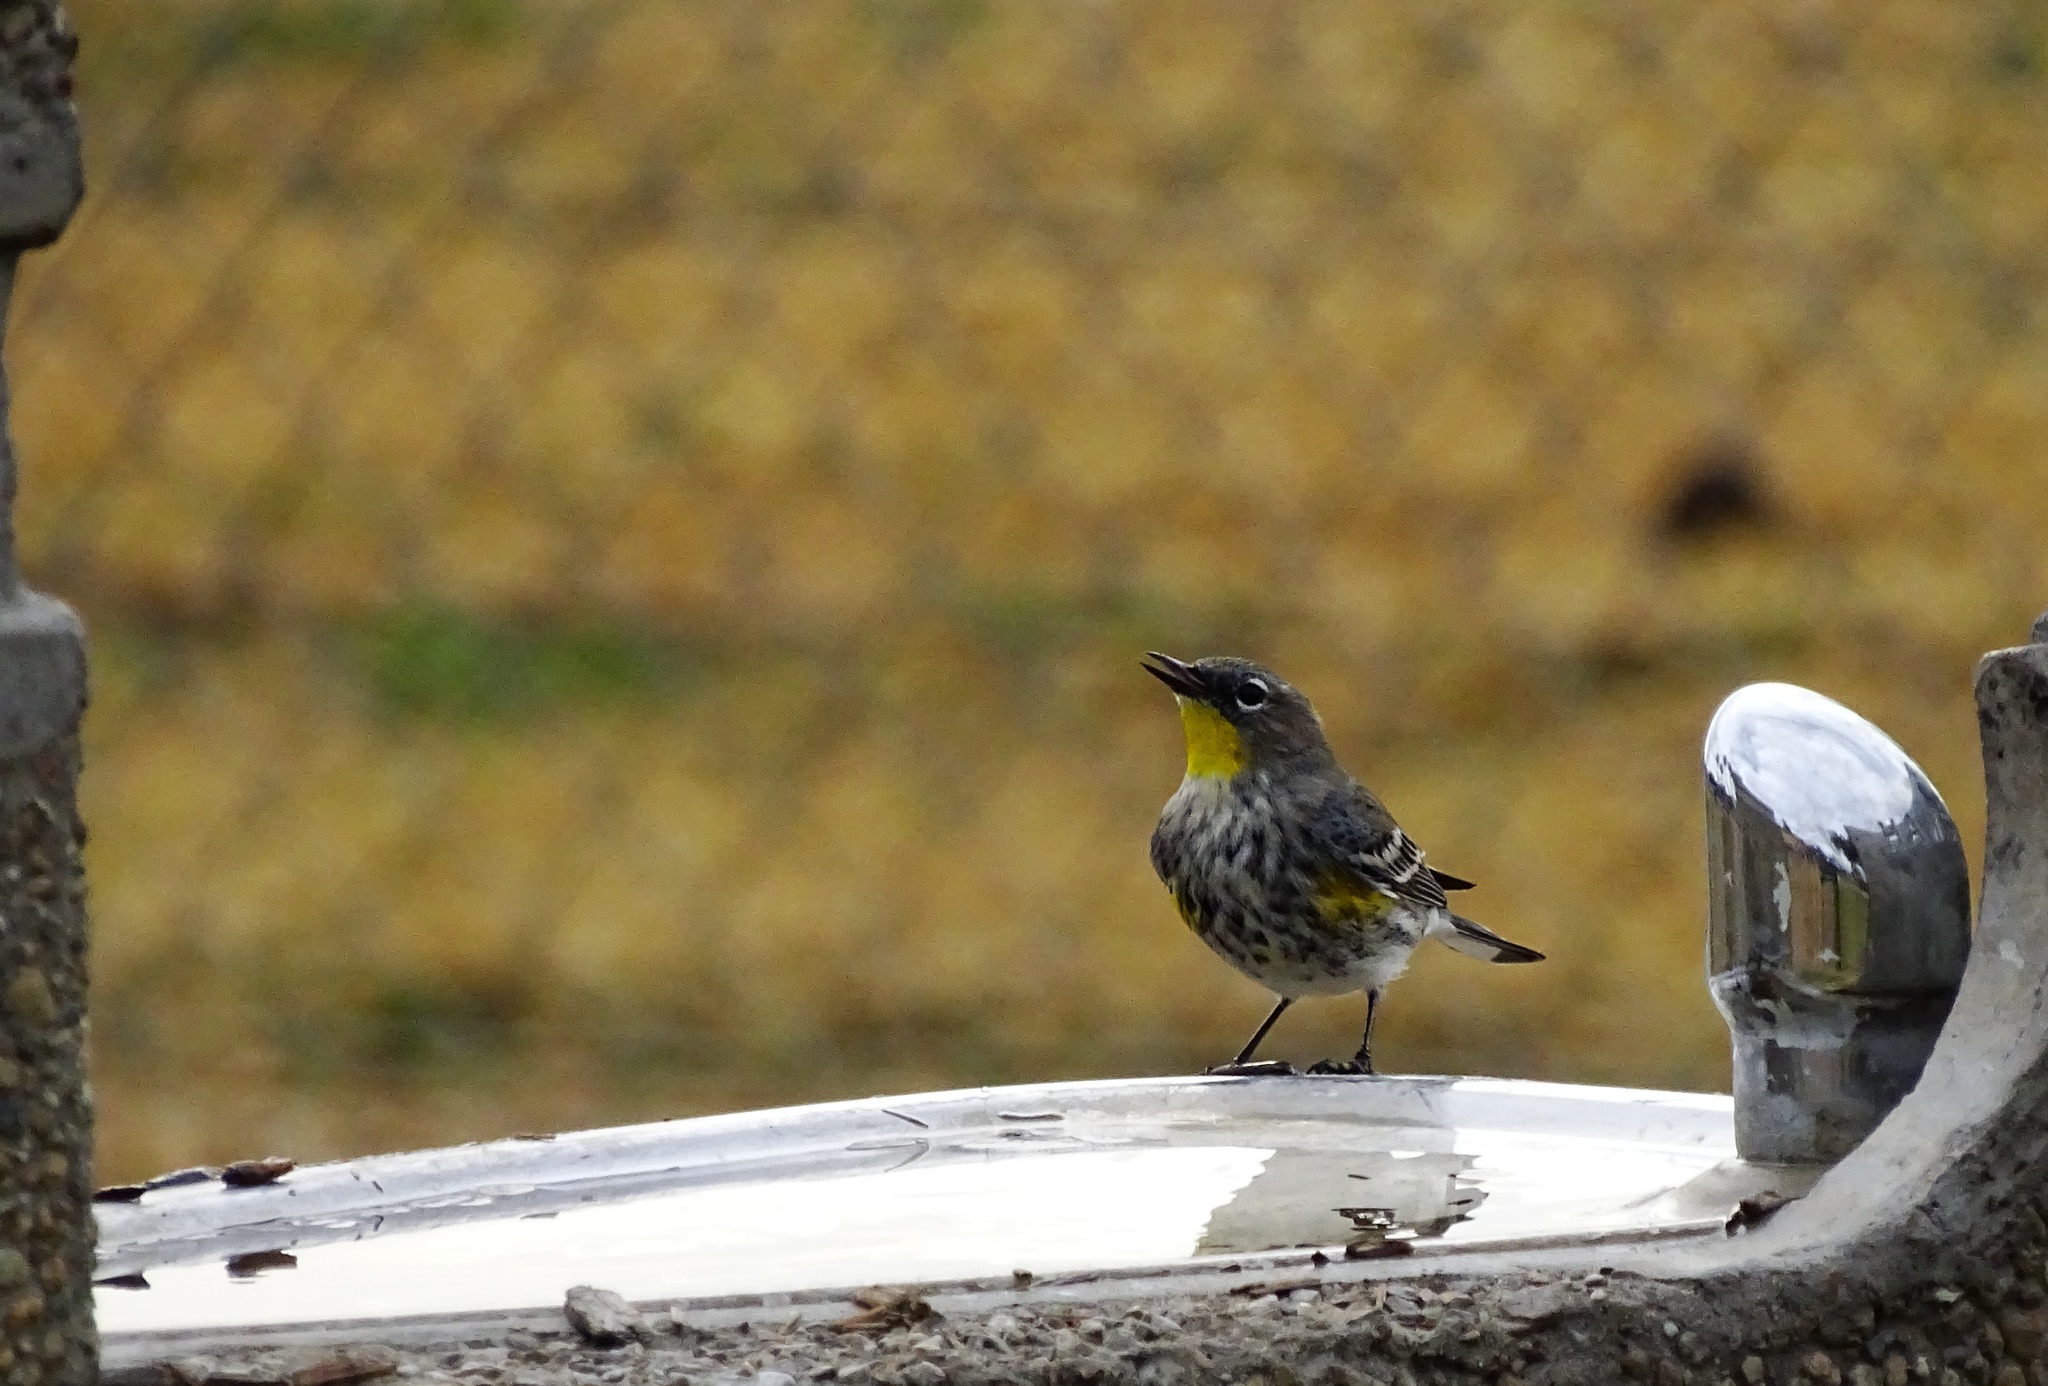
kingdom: Animalia
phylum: Chordata
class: Aves
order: Passeriformes
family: Parulidae
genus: Setophaga
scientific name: Setophaga coronata
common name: Myrtle warbler
